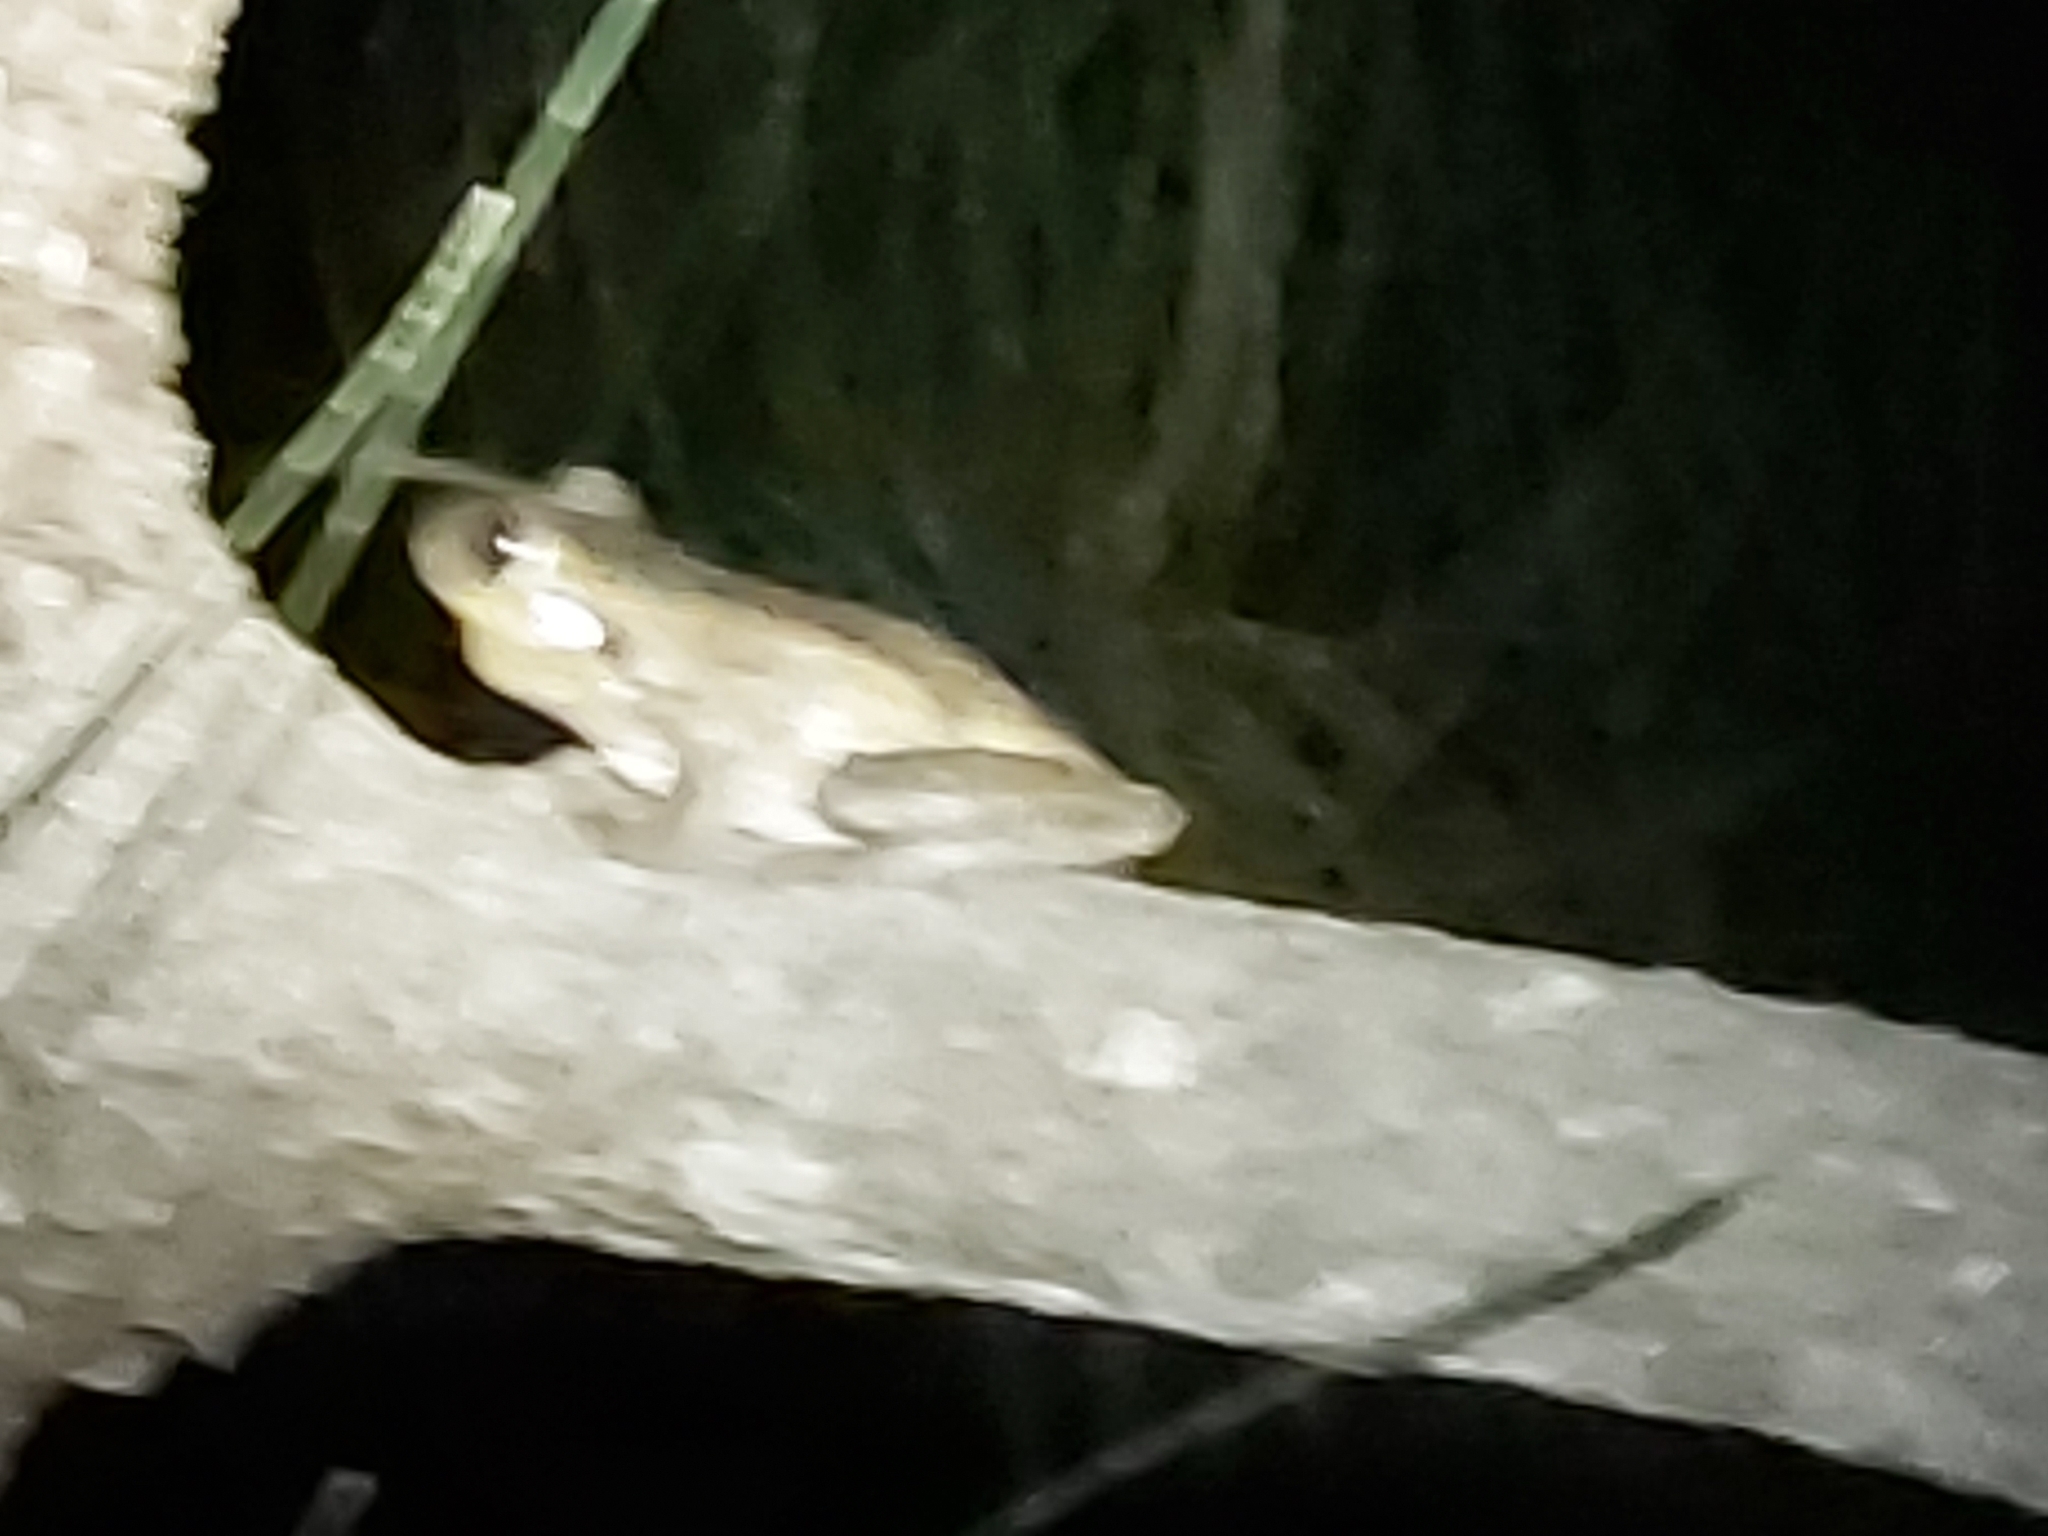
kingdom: Animalia
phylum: Chordata
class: Amphibia
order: Anura
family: Pelodryadidae
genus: Litoria
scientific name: Litoria peronii
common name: Emerald spotted treefrog
